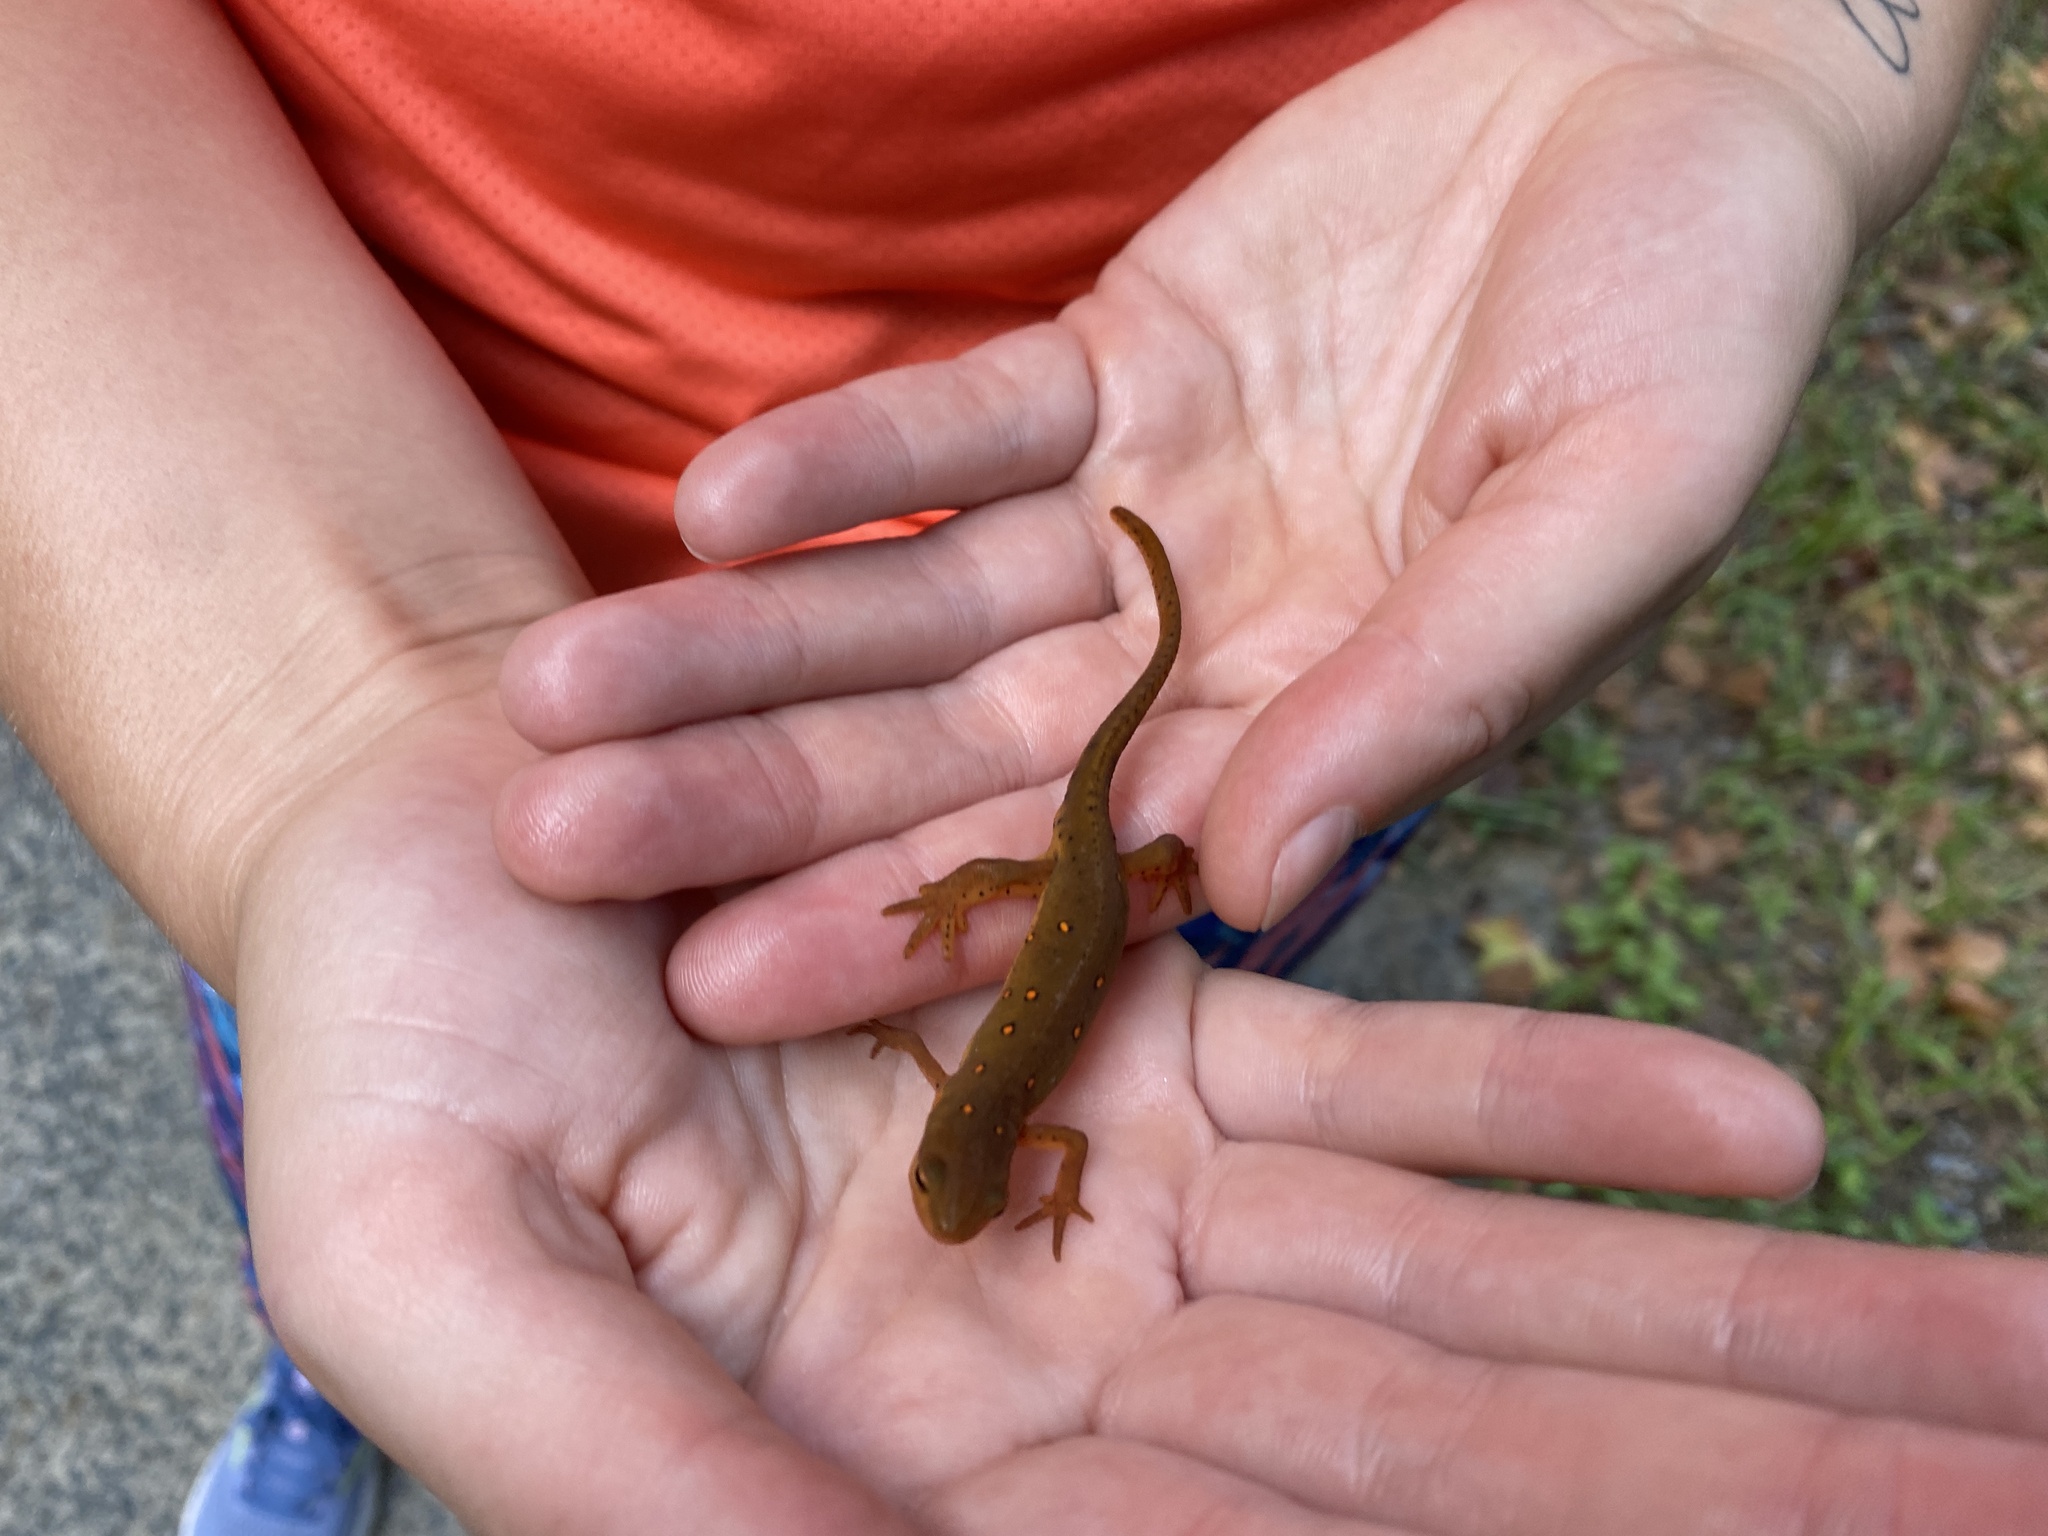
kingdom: Animalia
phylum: Chordata
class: Amphibia
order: Caudata
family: Salamandridae
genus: Notophthalmus
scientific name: Notophthalmus viridescens
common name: Eastern newt
